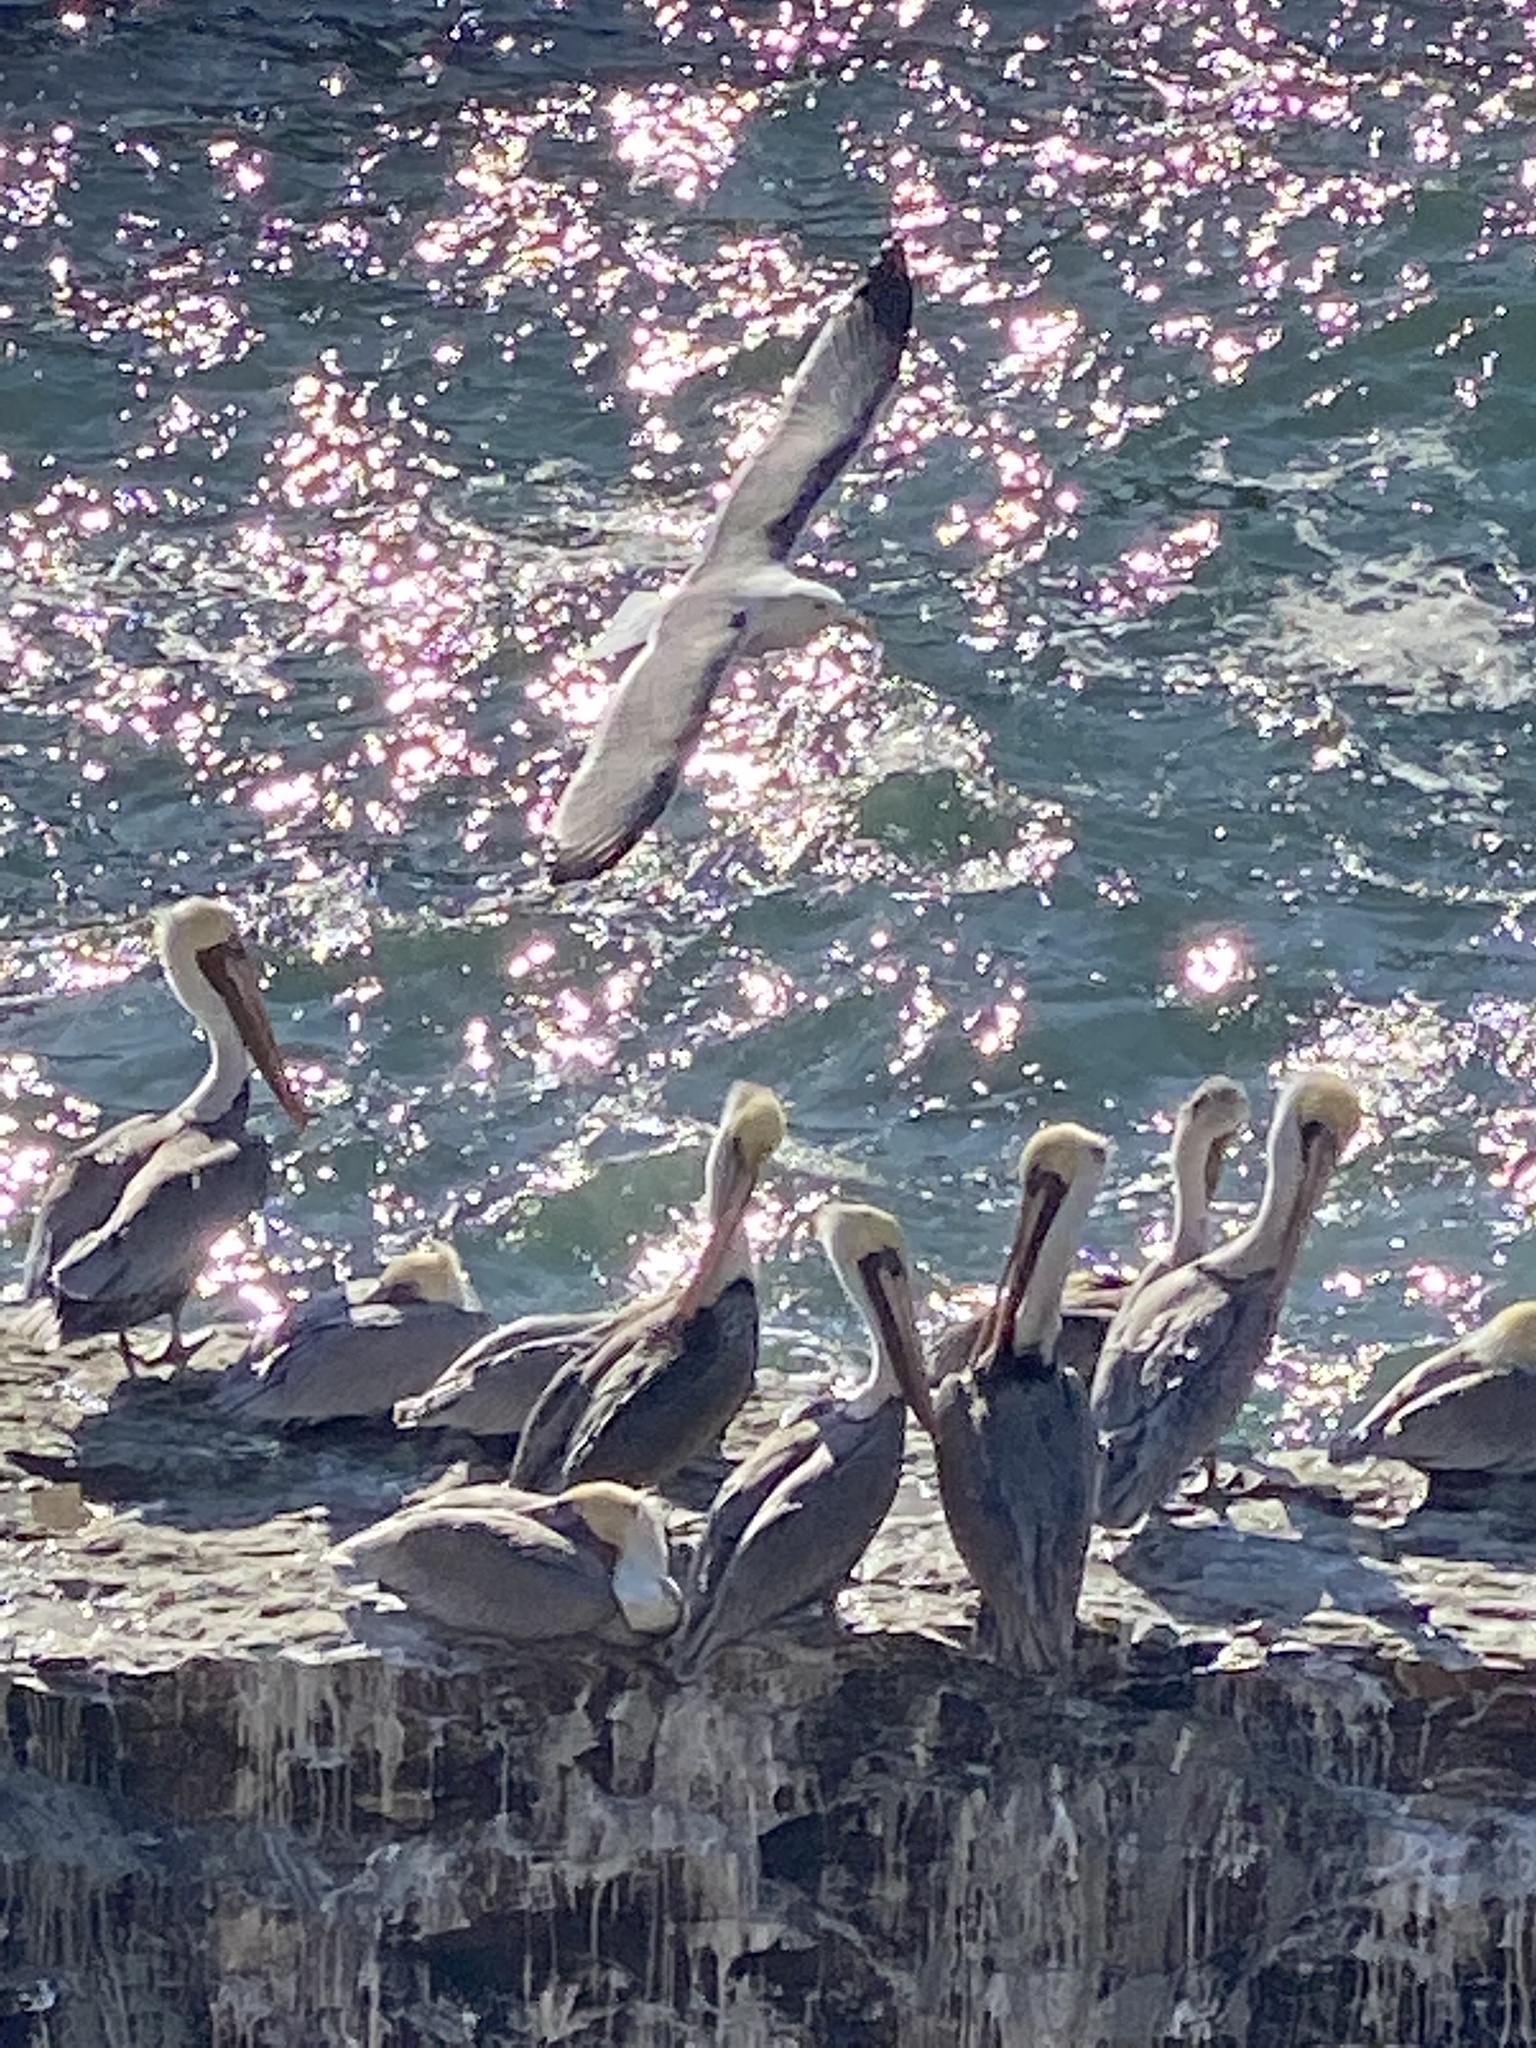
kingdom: Animalia
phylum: Chordata
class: Aves
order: Pelecaniformes
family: Pelecanidae
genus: Pelecanus
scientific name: Pelecanus occidentalis
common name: Brown pelican
